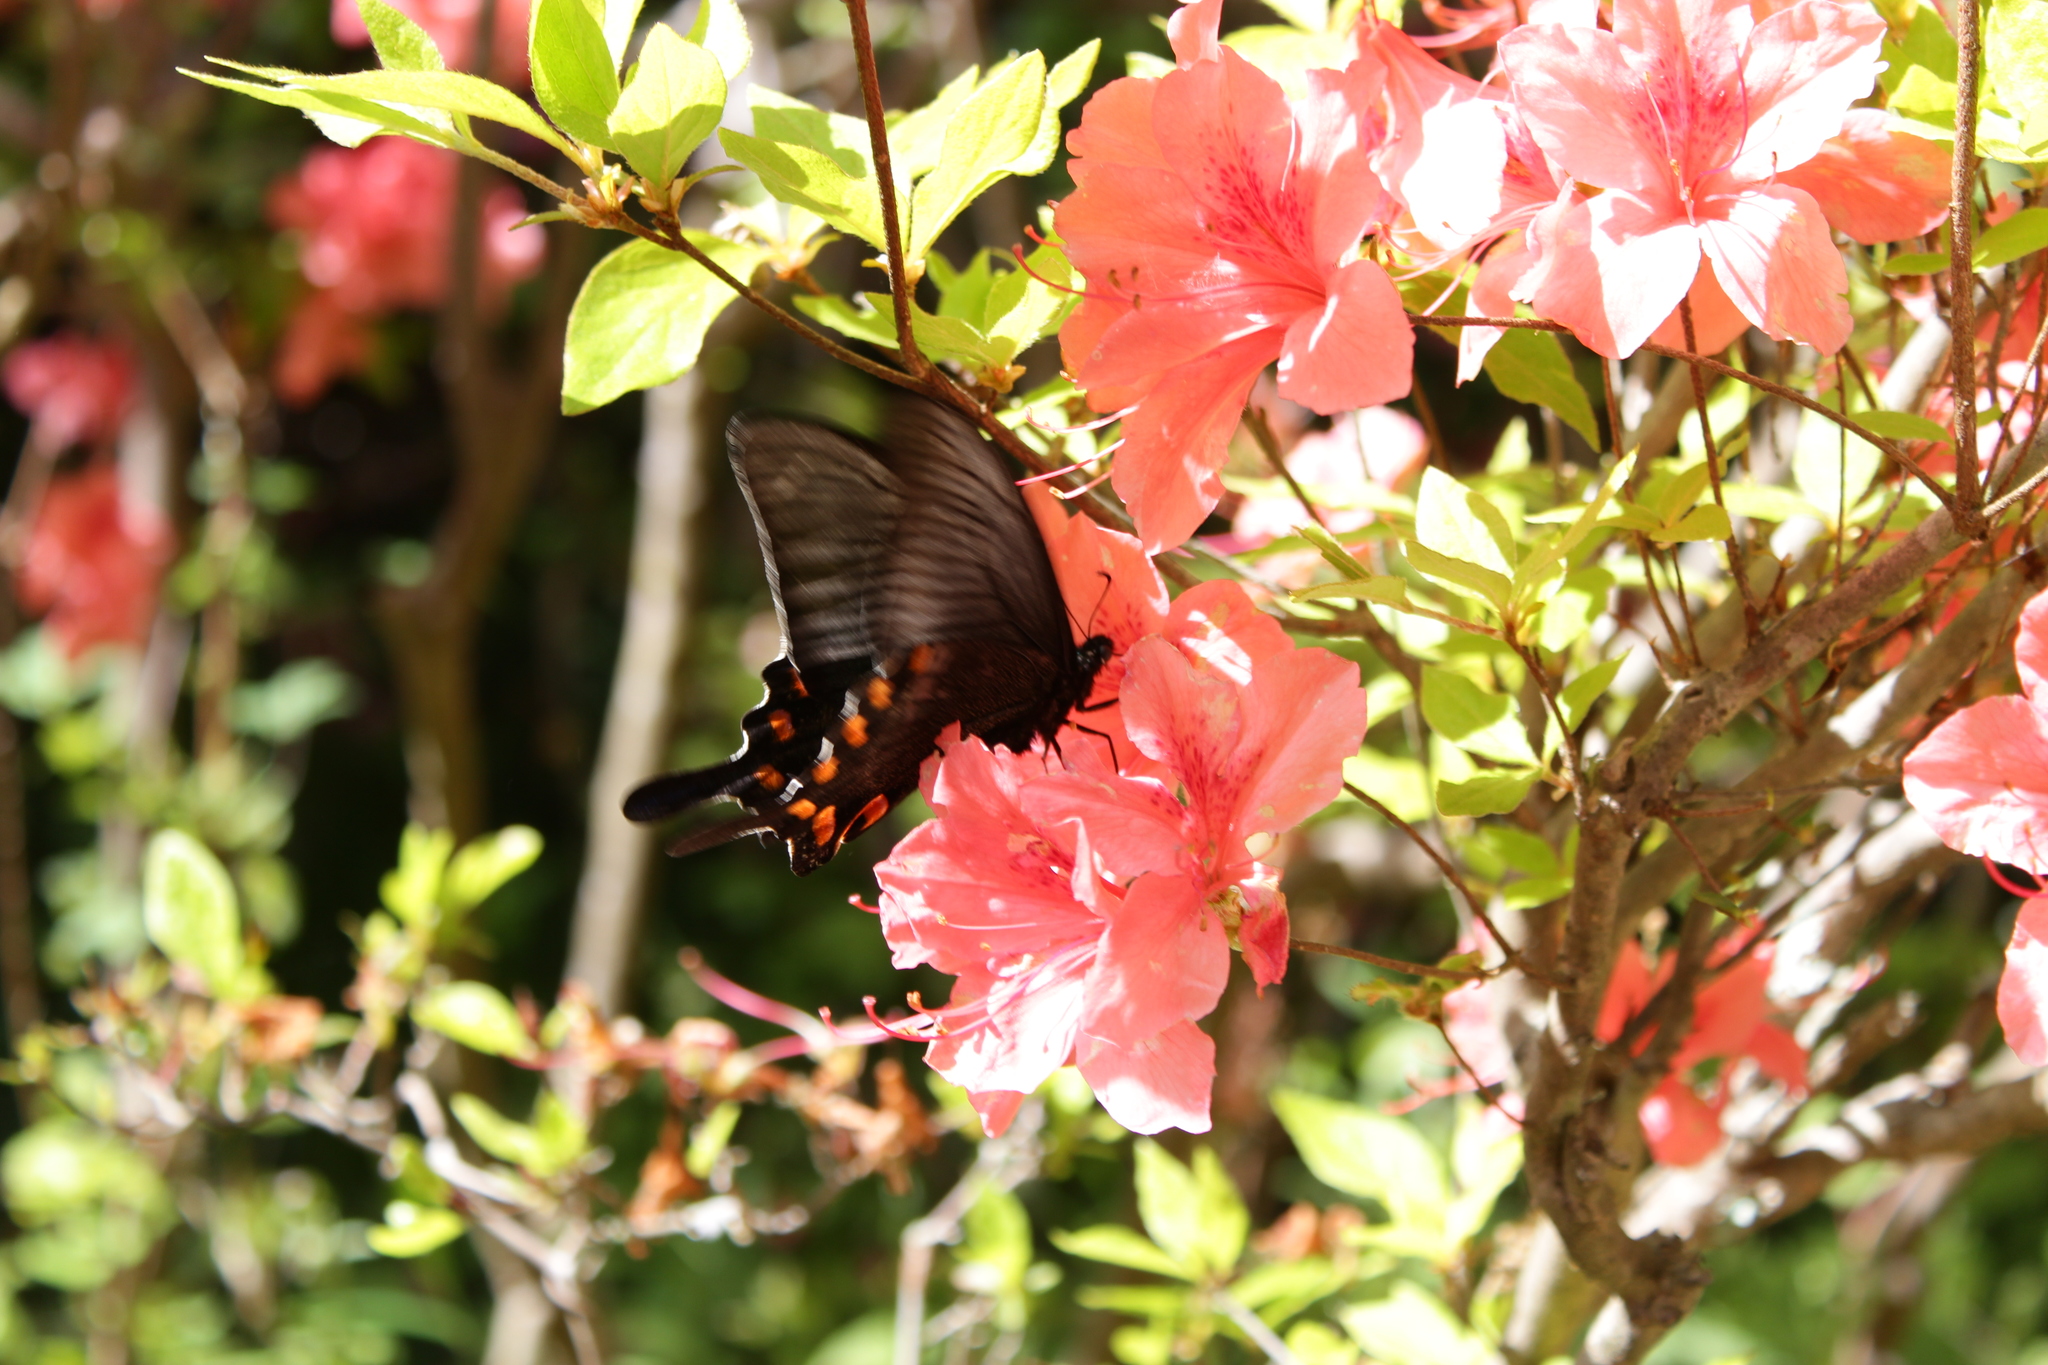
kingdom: Animalia
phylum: Arthropoda
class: Insecta
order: Lepidoptera
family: Papilionidae
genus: Papilio
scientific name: Papilio maackii
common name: Alpine black swallowtail
